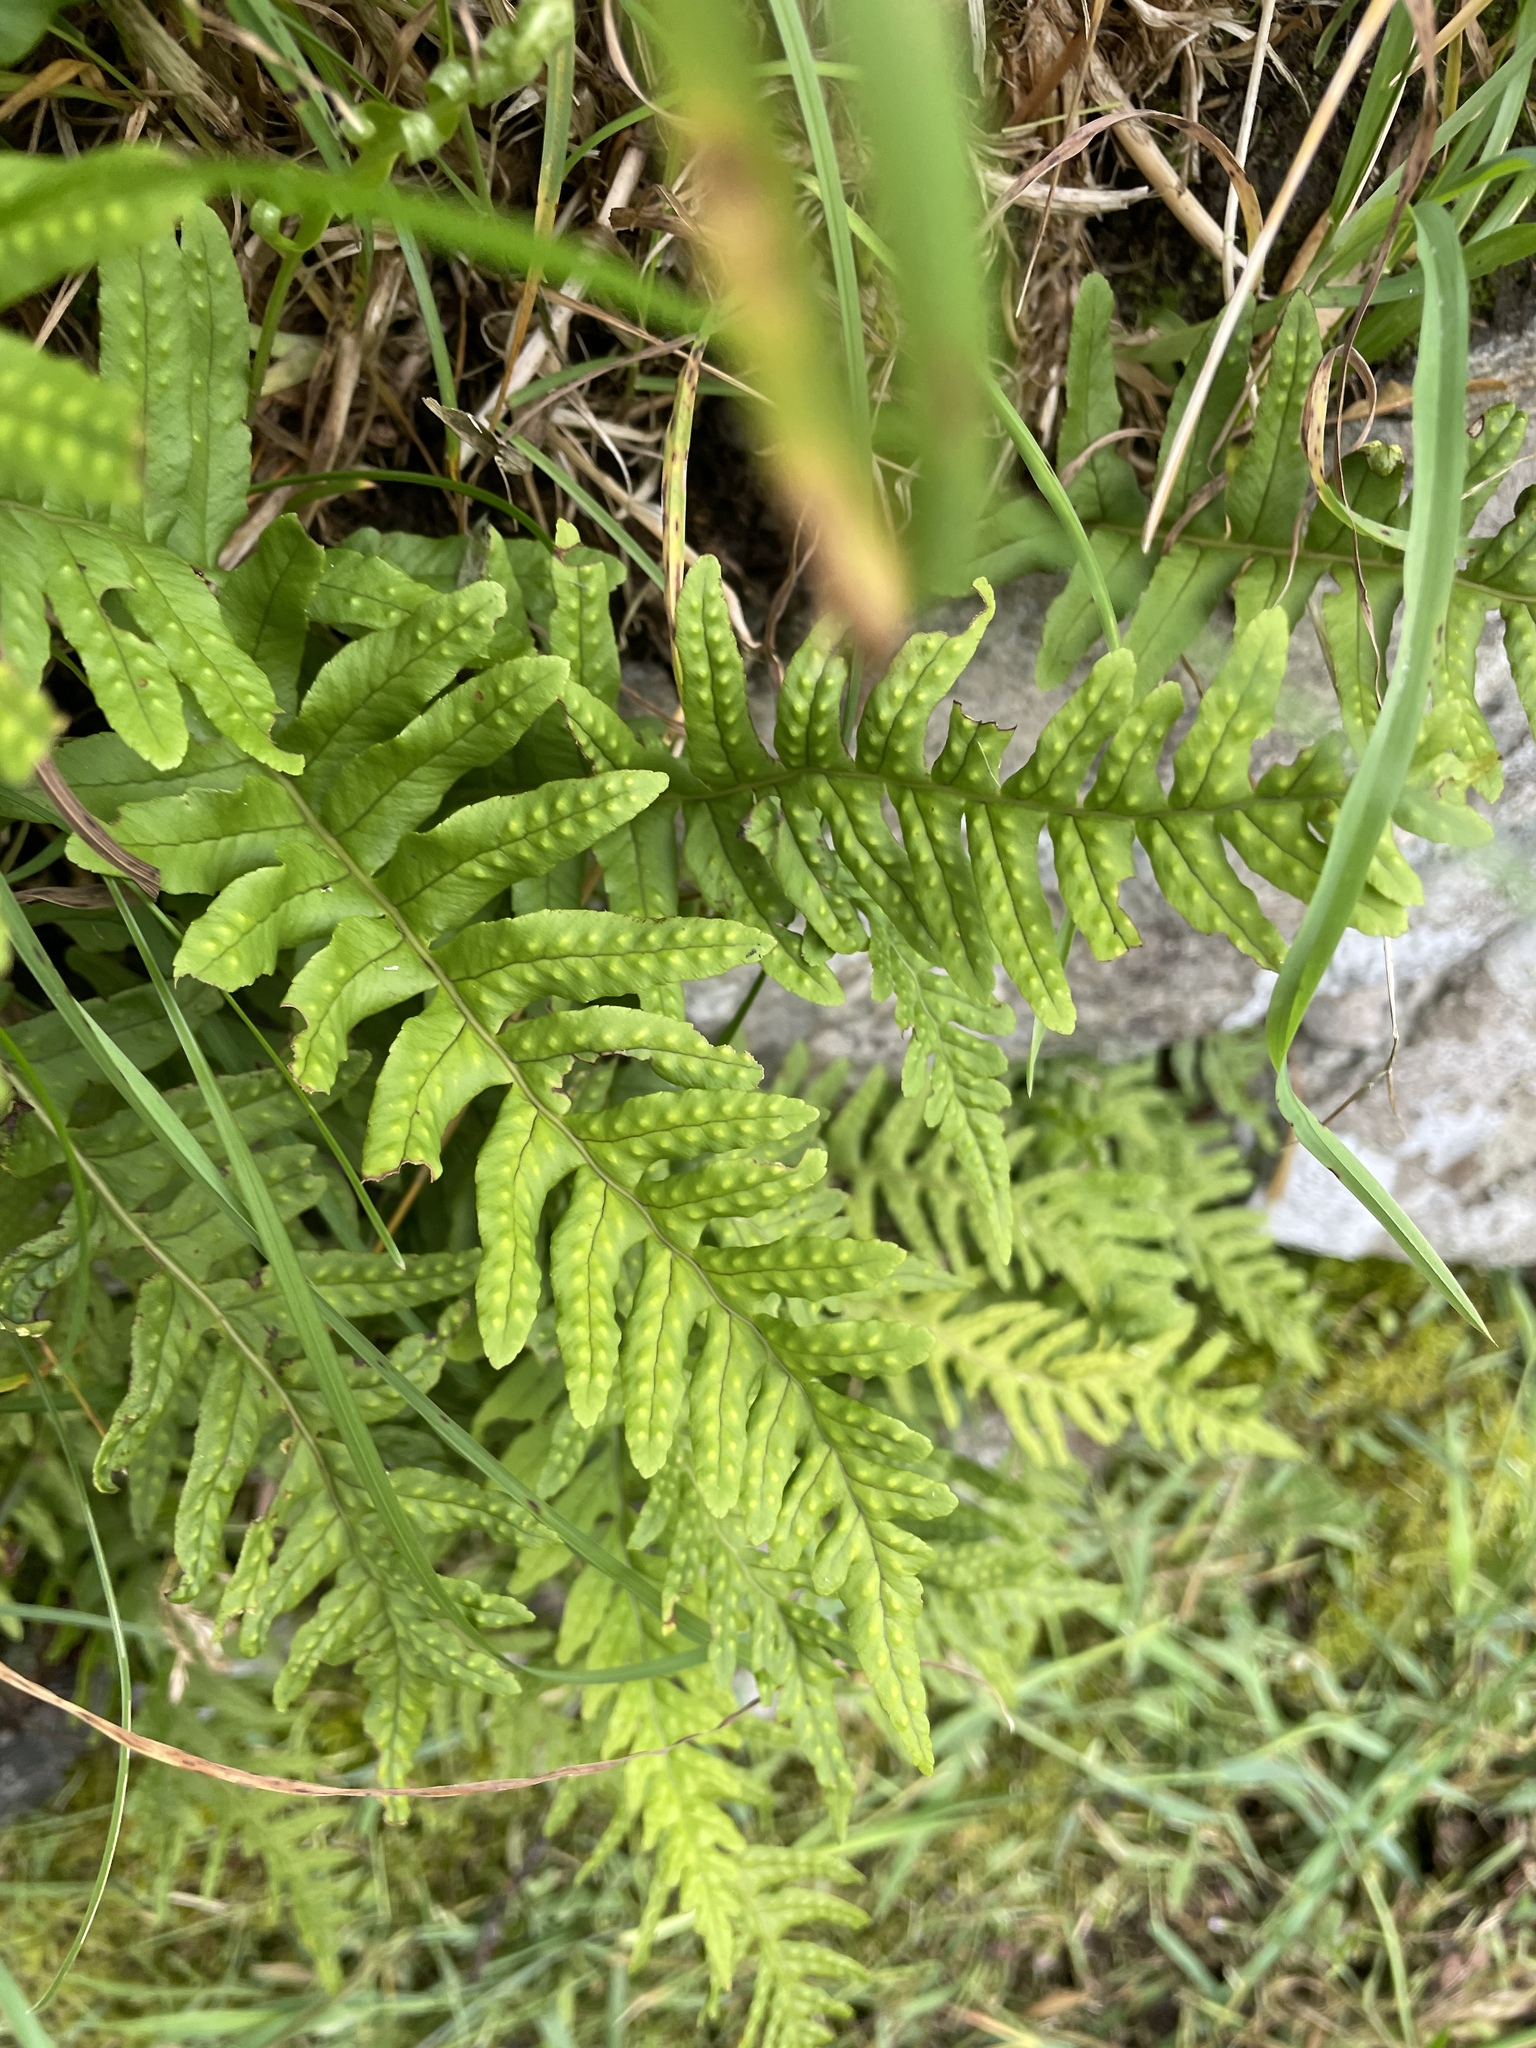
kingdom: Plantae
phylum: Tracheophyta
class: Polypodiopsida
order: Polypodiales
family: Polypodiaceae
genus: Polypodium
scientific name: Polypodium vulgare
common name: Common polypody
